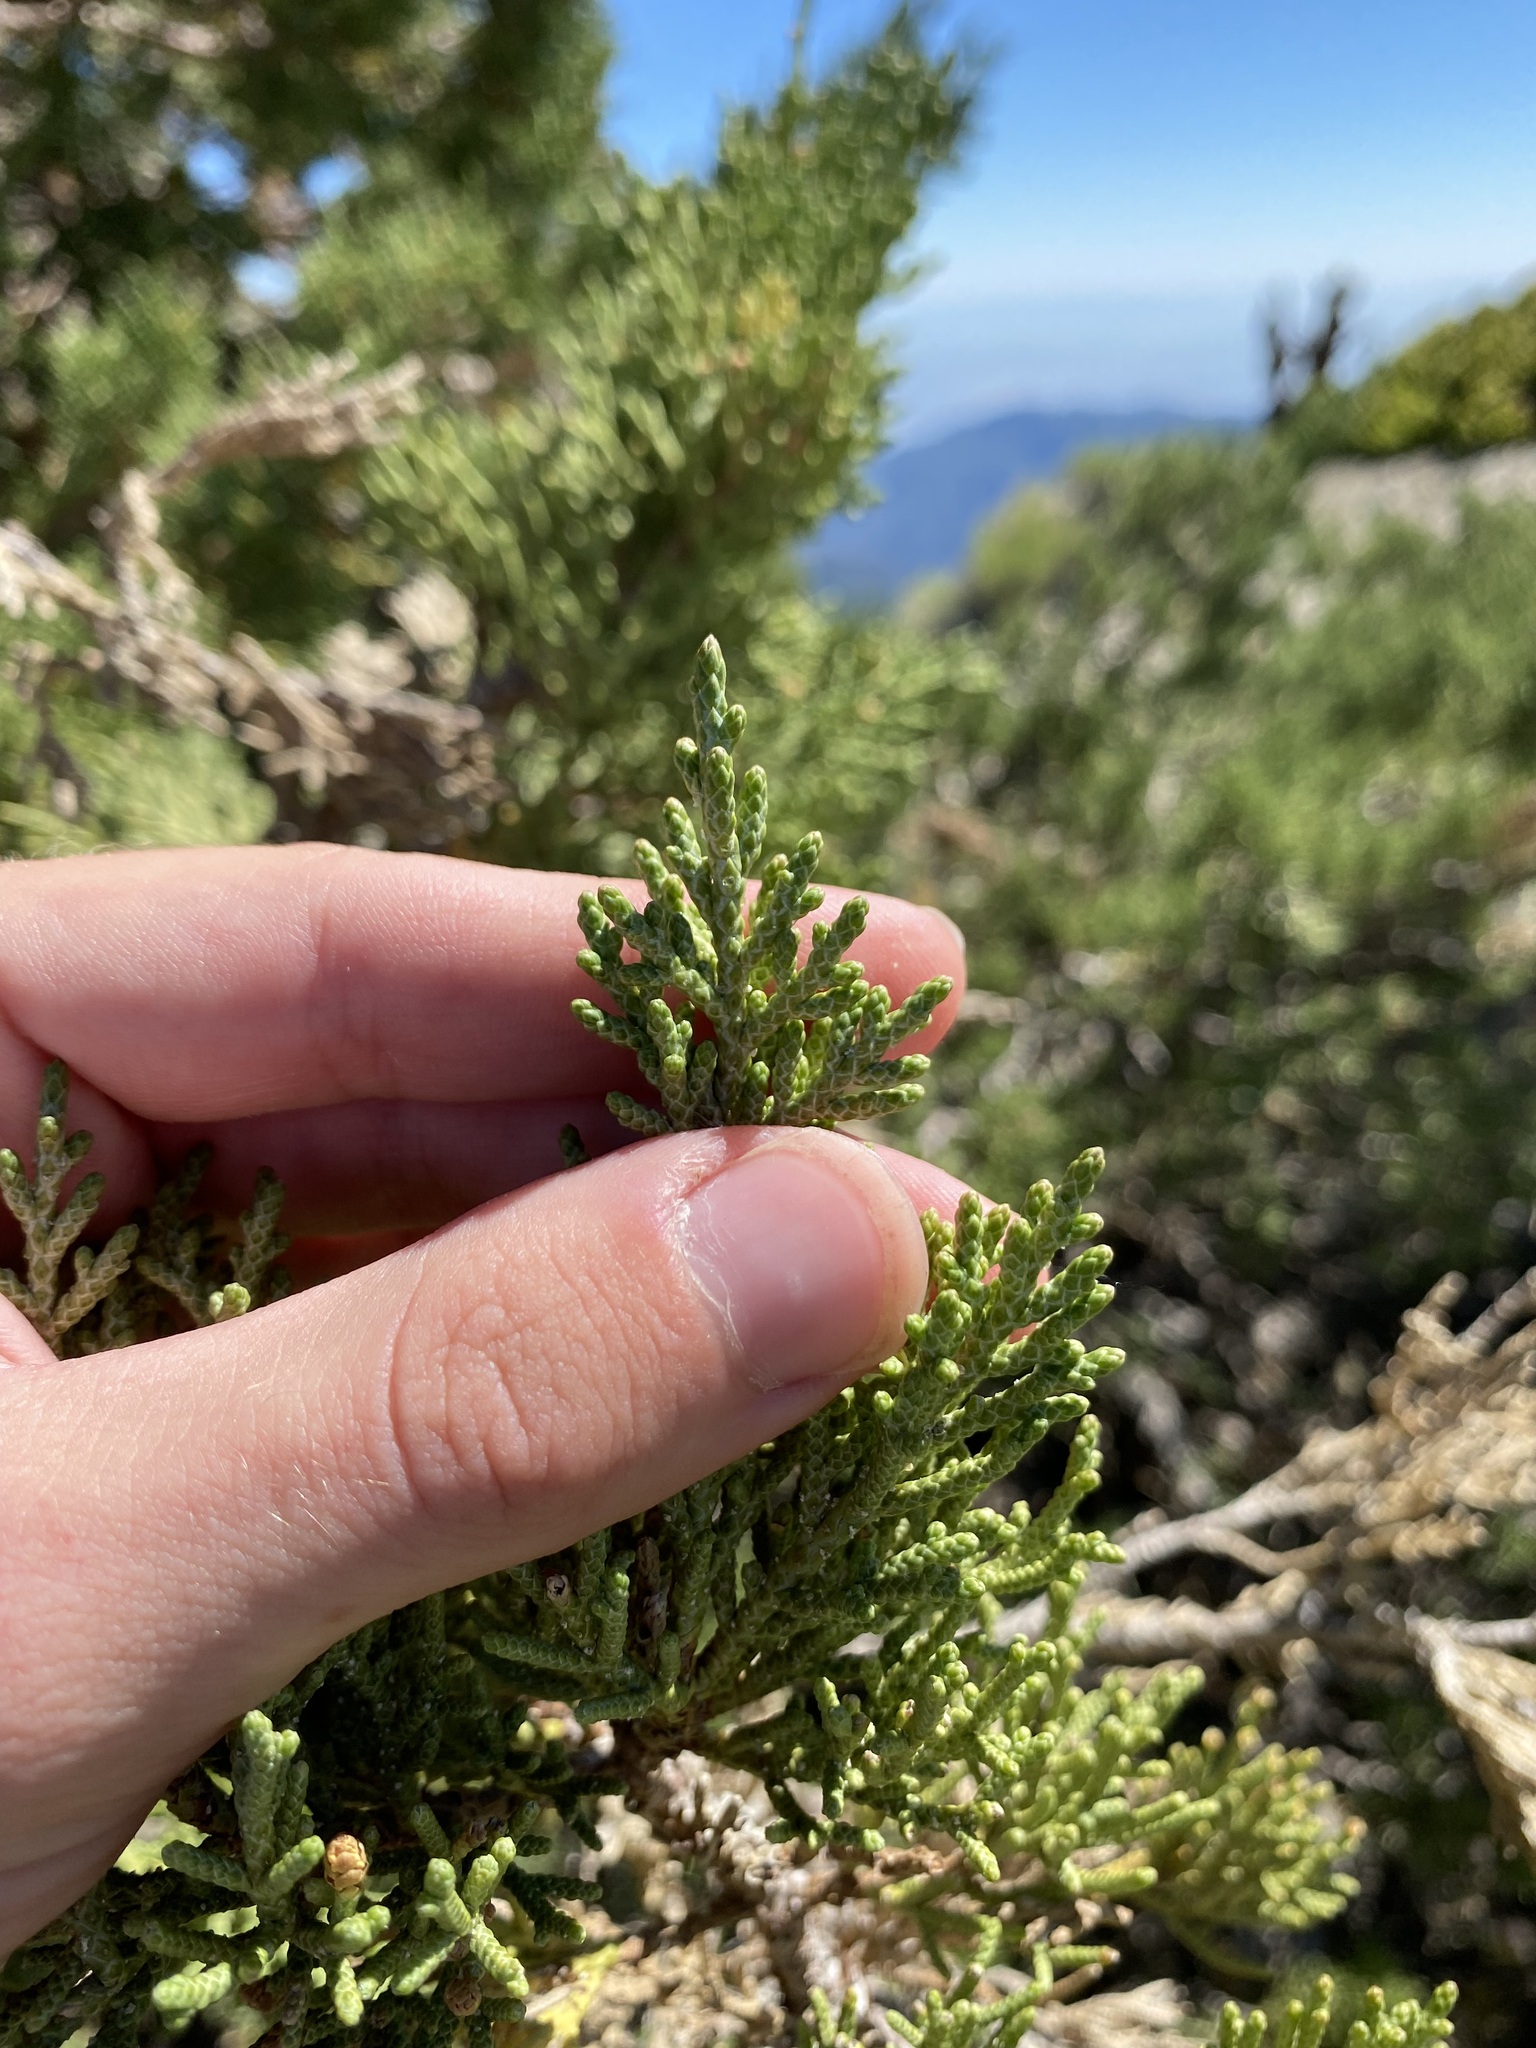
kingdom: Plantae
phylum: Tracheophyta
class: Pinopsida
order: Pinales
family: Cupressaceae
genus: Juniperus
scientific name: Juniperus occidentalis
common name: Western juniper
